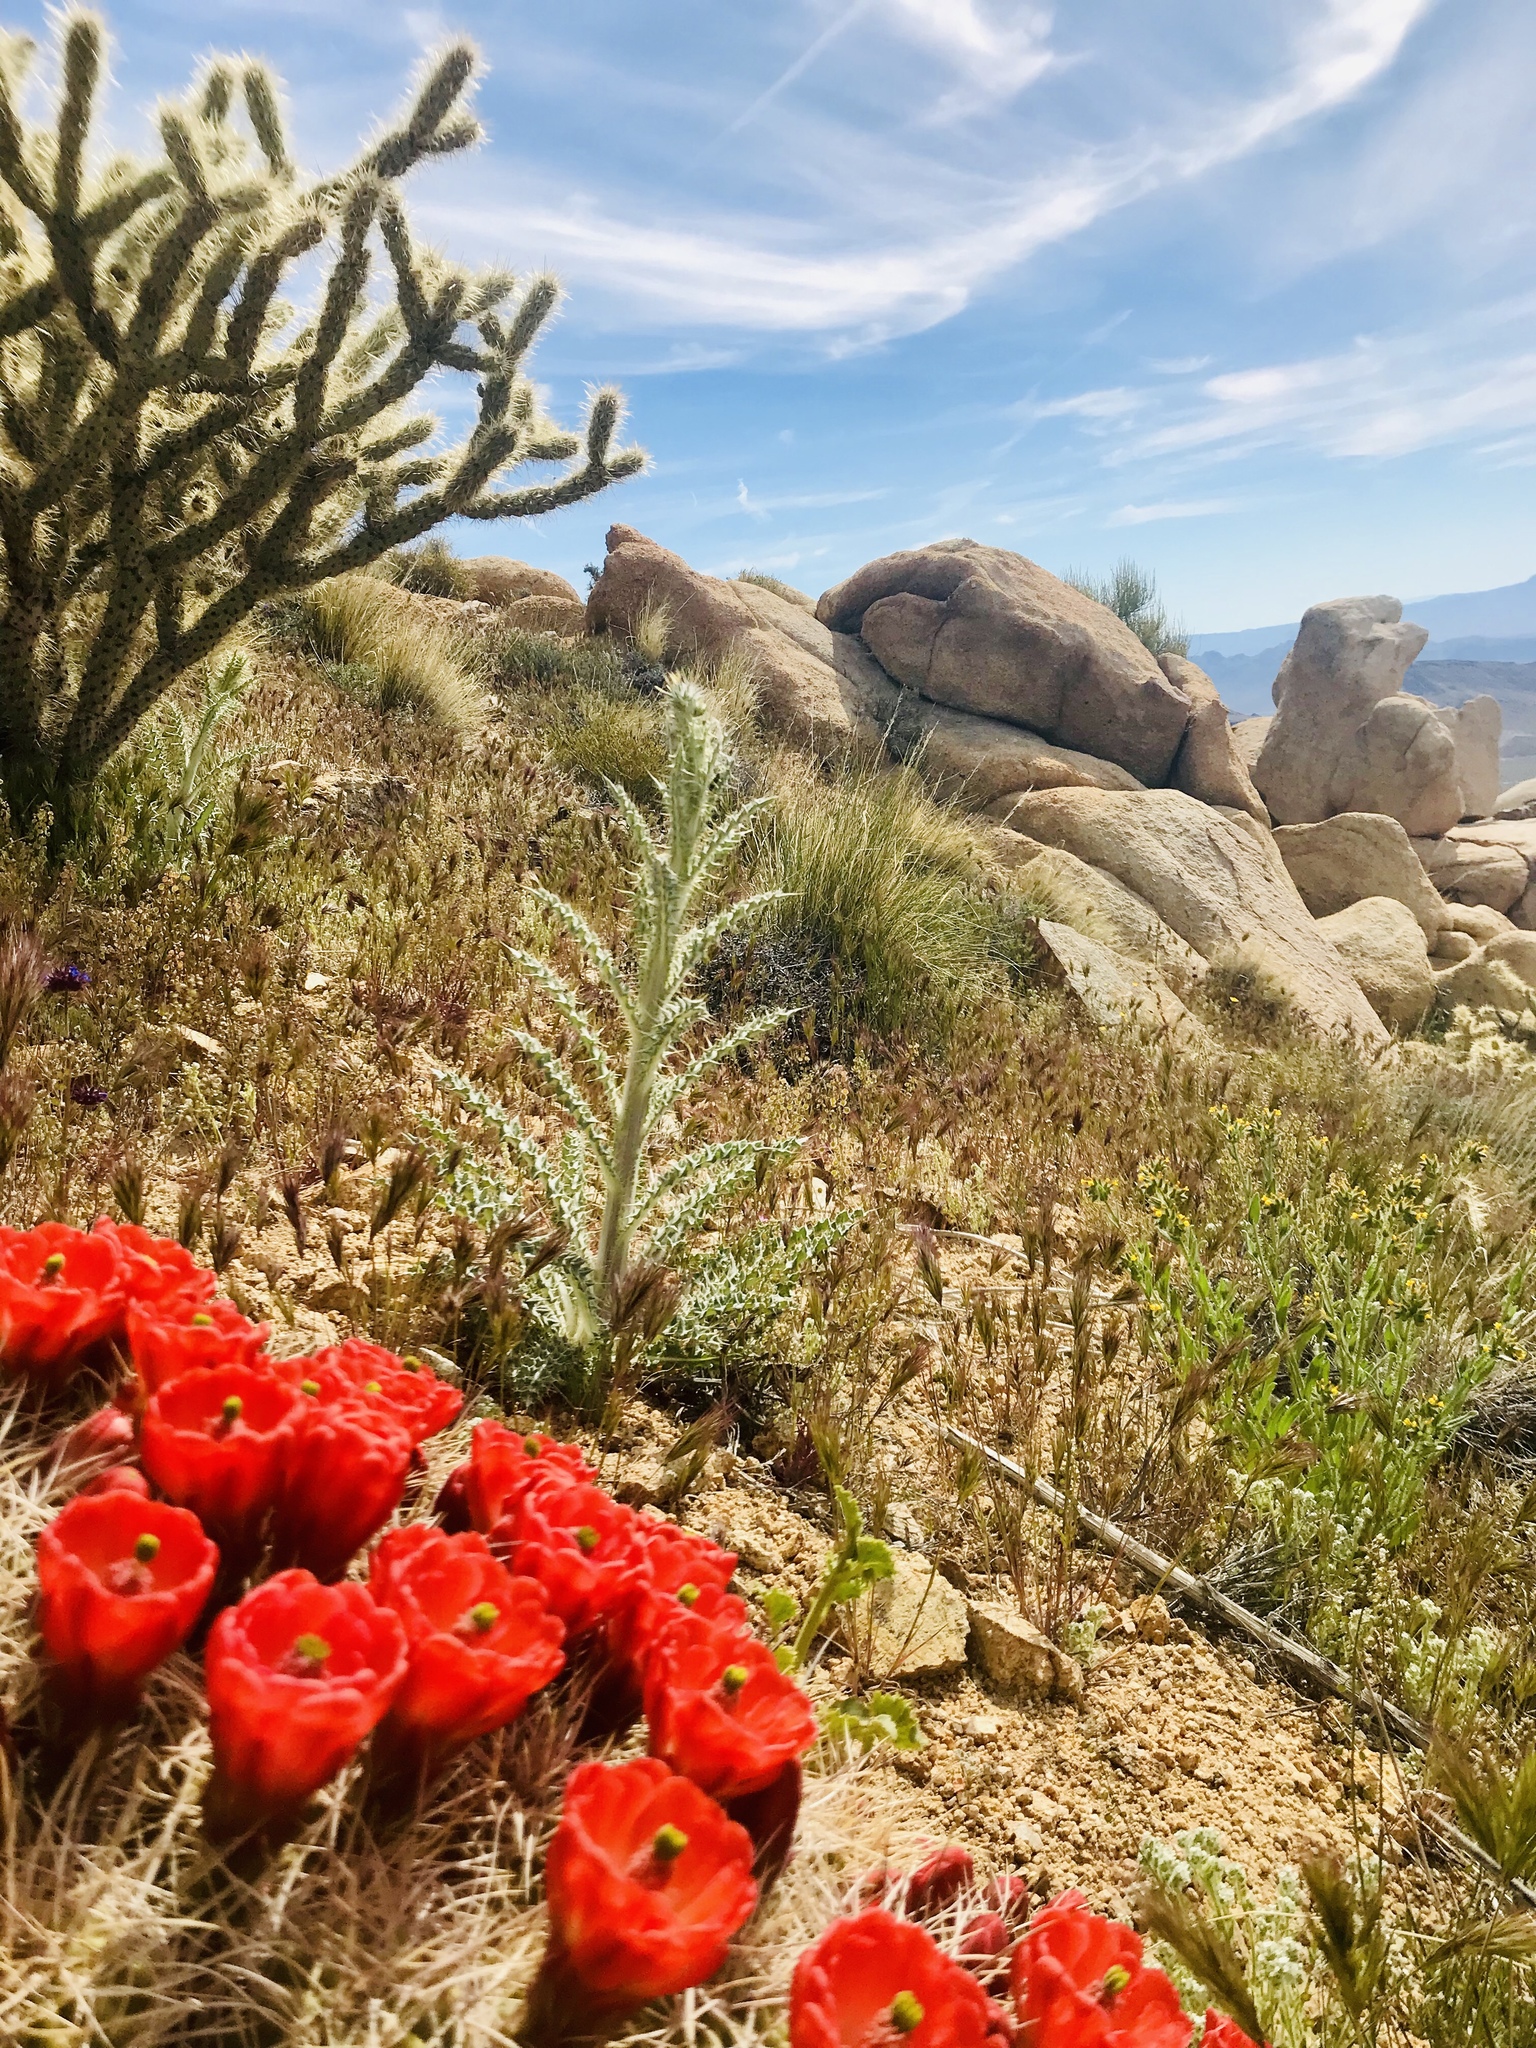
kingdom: Plantae
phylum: Tracheophyta
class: Magnoliopsida
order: Caryophyllales
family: Cactaceae
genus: Echinocereus
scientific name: Echinocereus triglochidiatus
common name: Claretcup hedgehog
